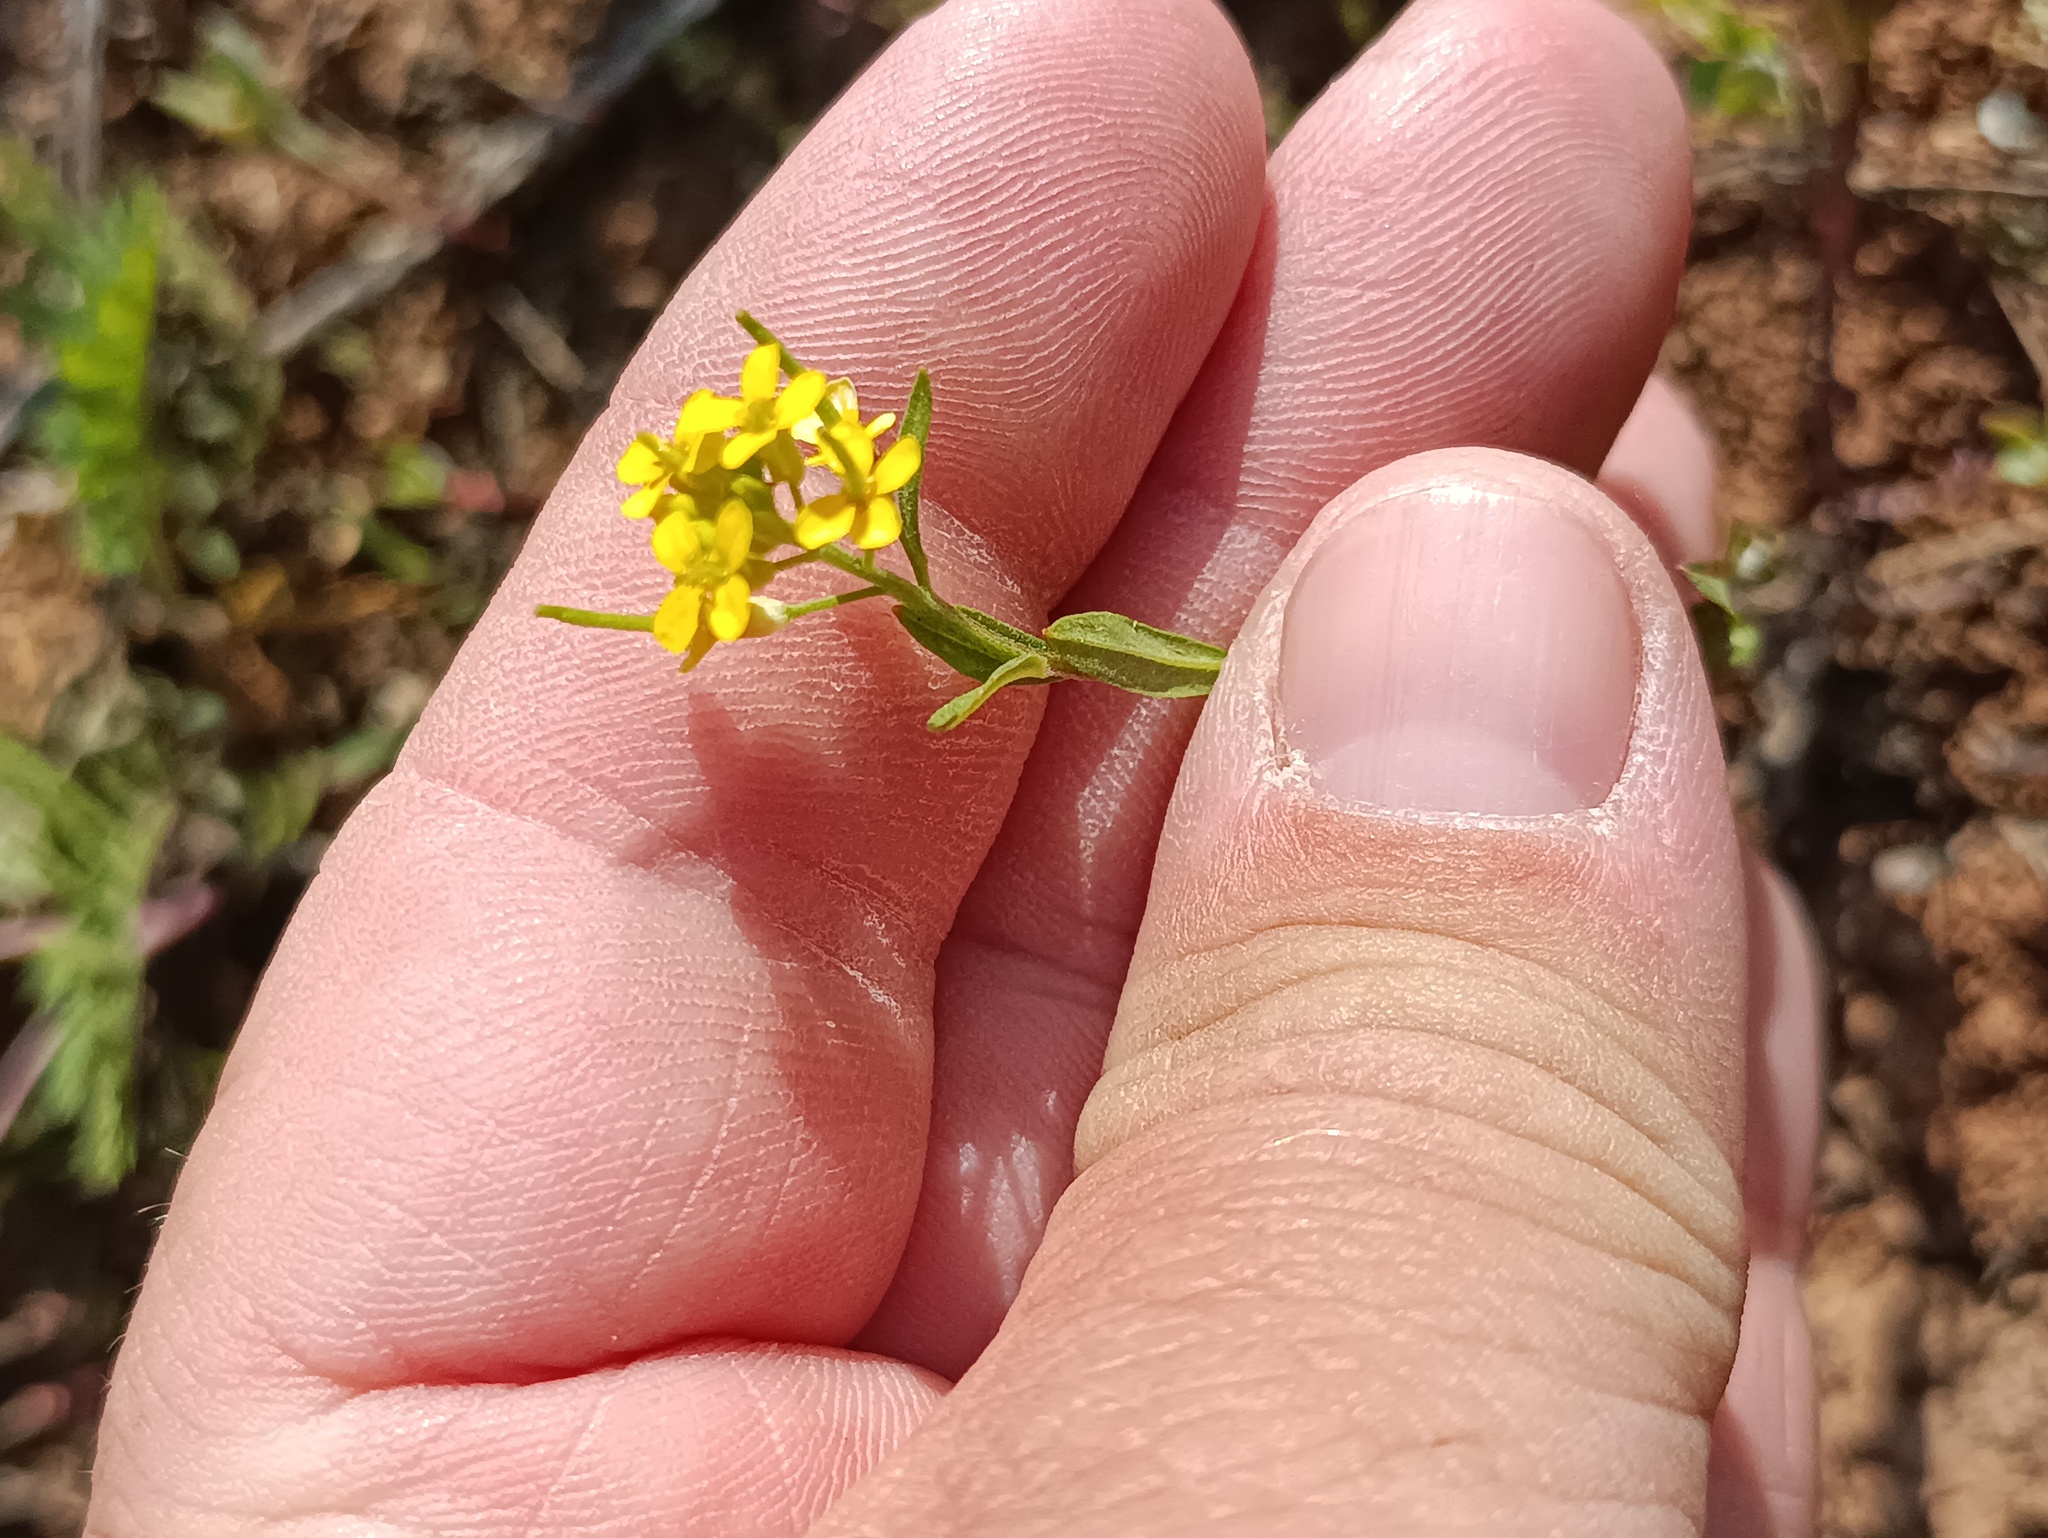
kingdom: Plantae
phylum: Tracheophyta
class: Magnoliopsida
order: Brassicales
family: Brassicaceae
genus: Erysimum
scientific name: Erysimum cheiranthoides
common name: Treacle mustard
